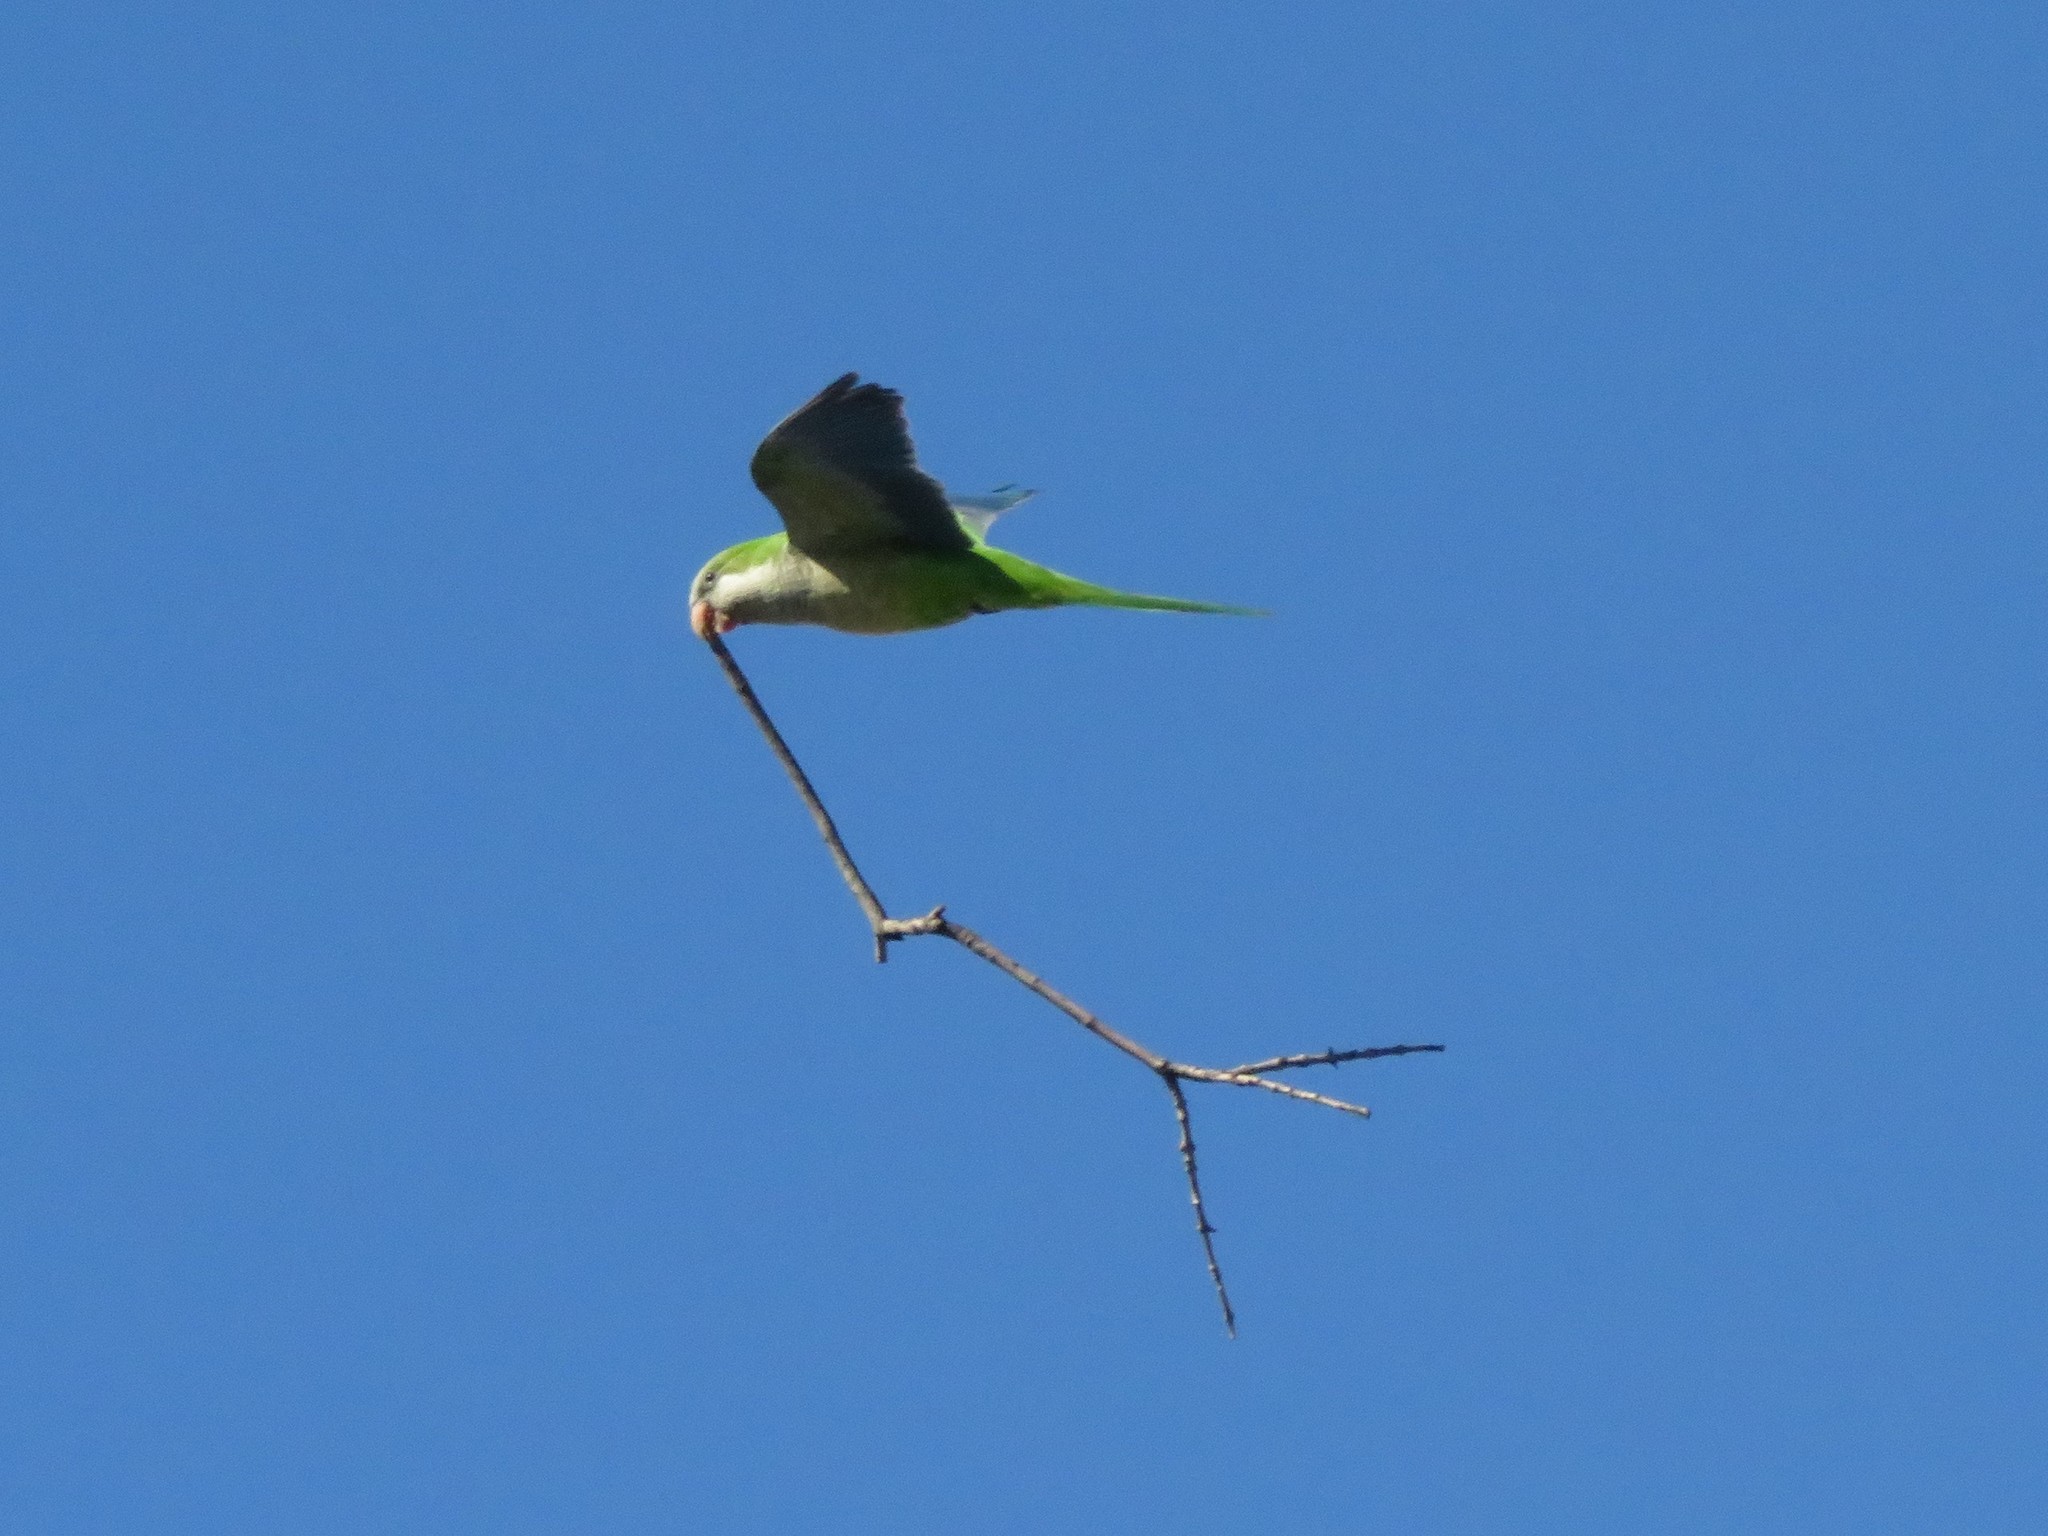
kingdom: Animalia
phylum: Chordata
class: Aves
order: Psittaciformes
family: Psittacidae
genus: Myiopsitta
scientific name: Myiopsitta monachus
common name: Monk parakeet
